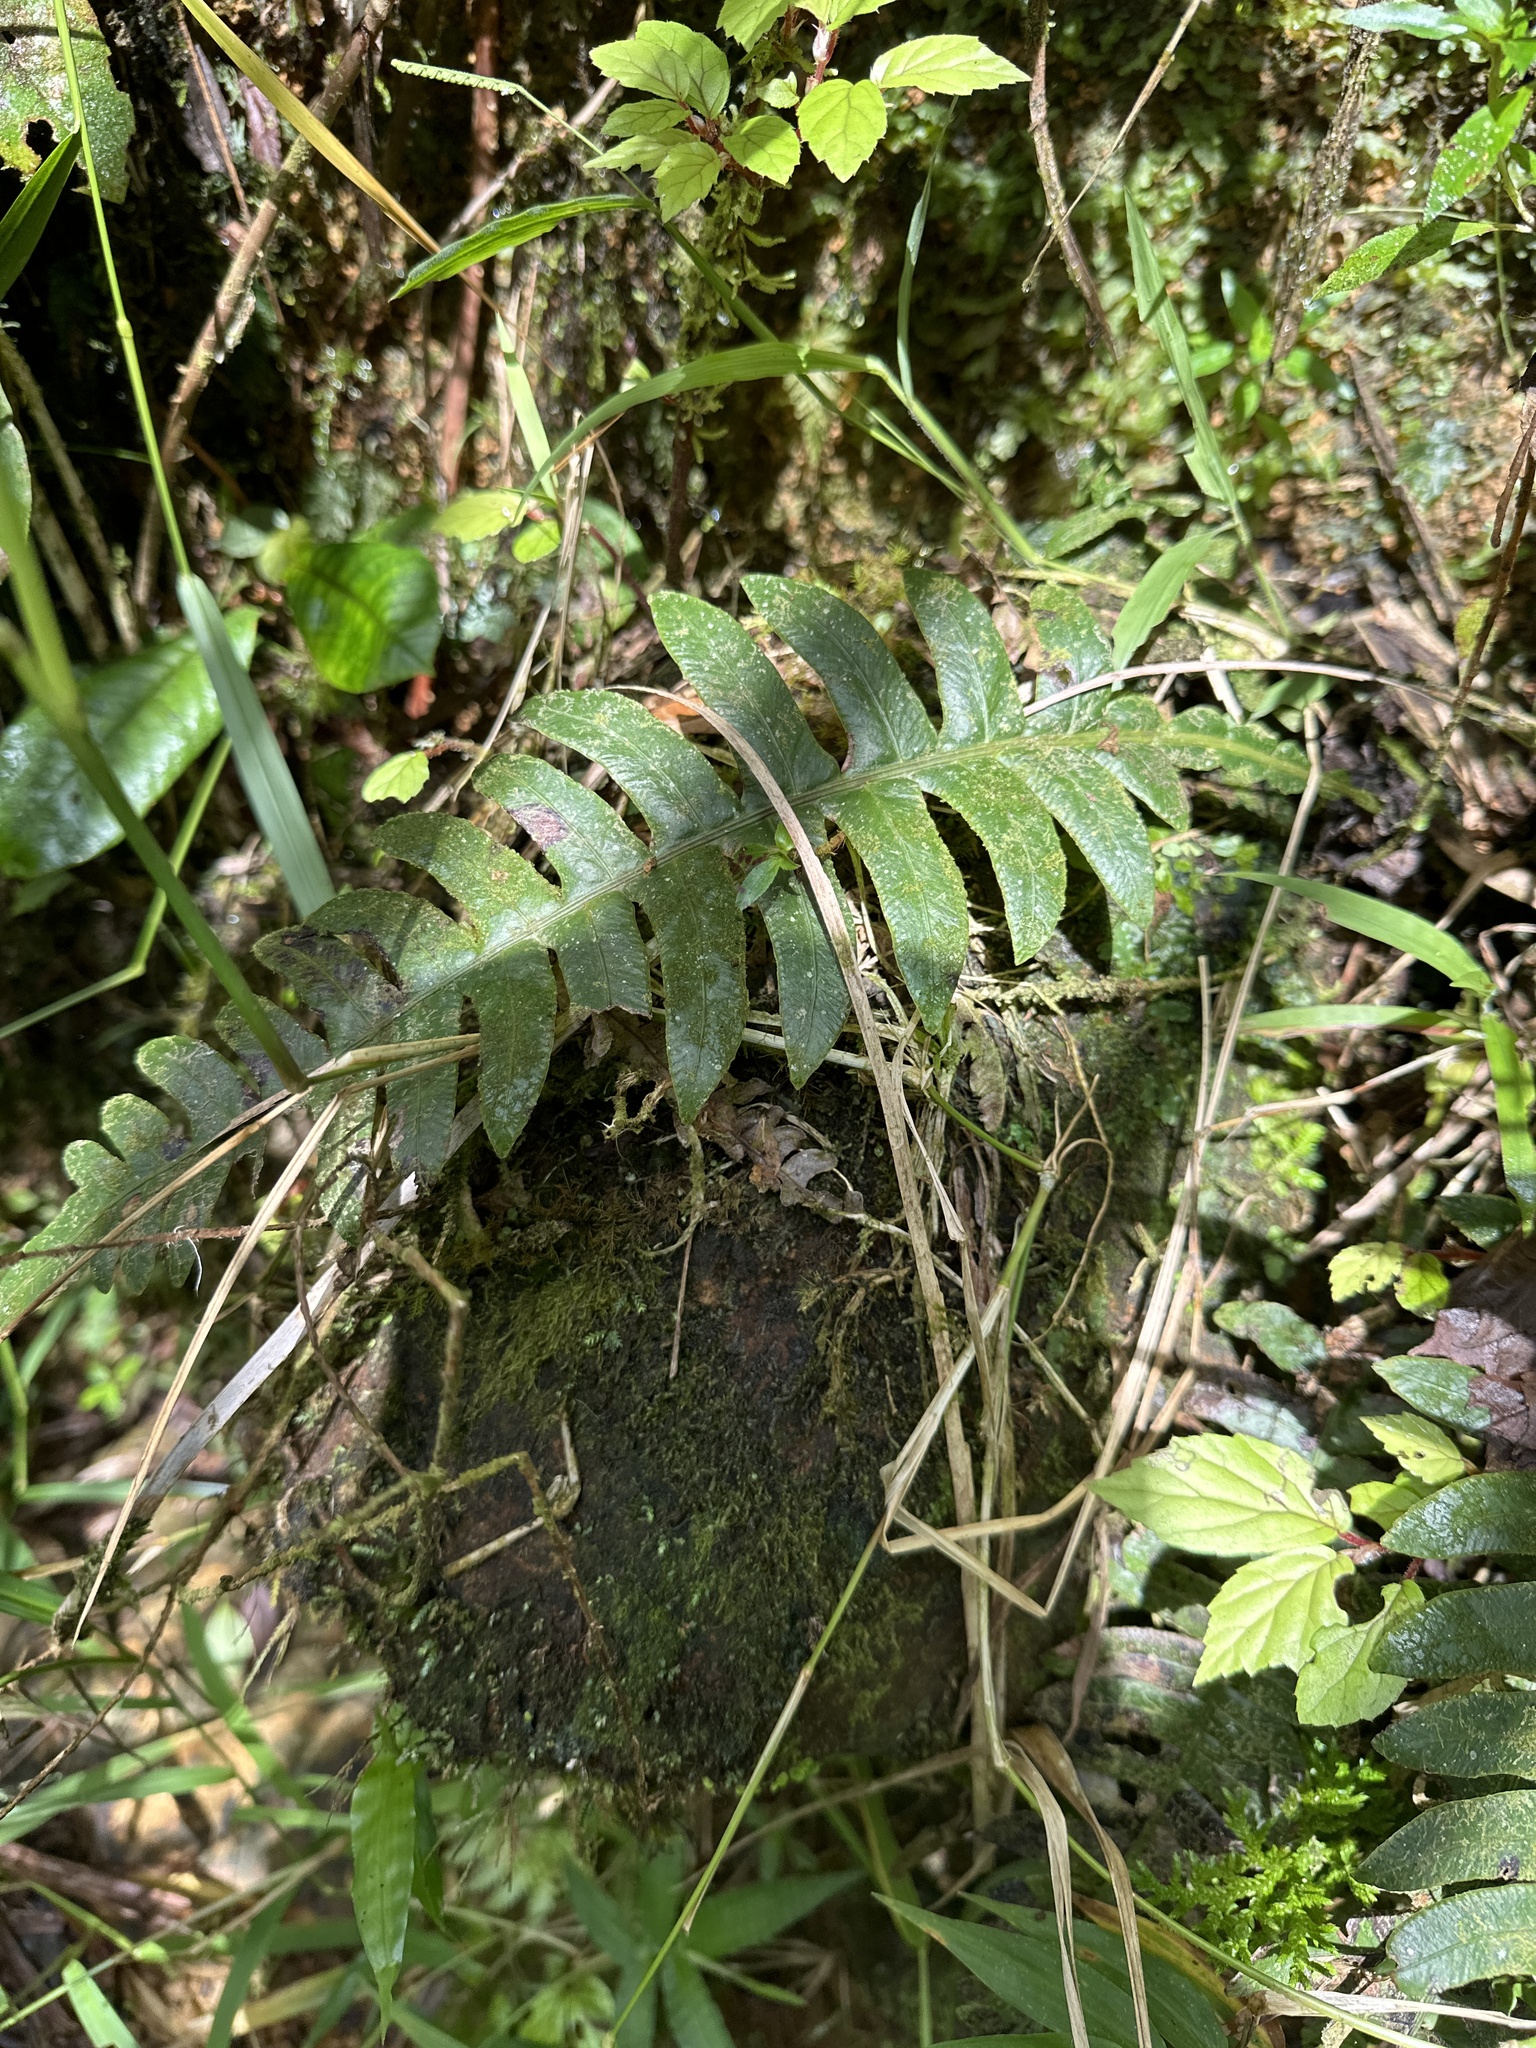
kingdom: Plantae
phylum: Tracheophyta
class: Polypodiopsida
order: Polypodiales
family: Blechnaceae
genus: Blechnum
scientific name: Blechnum polypodioides
